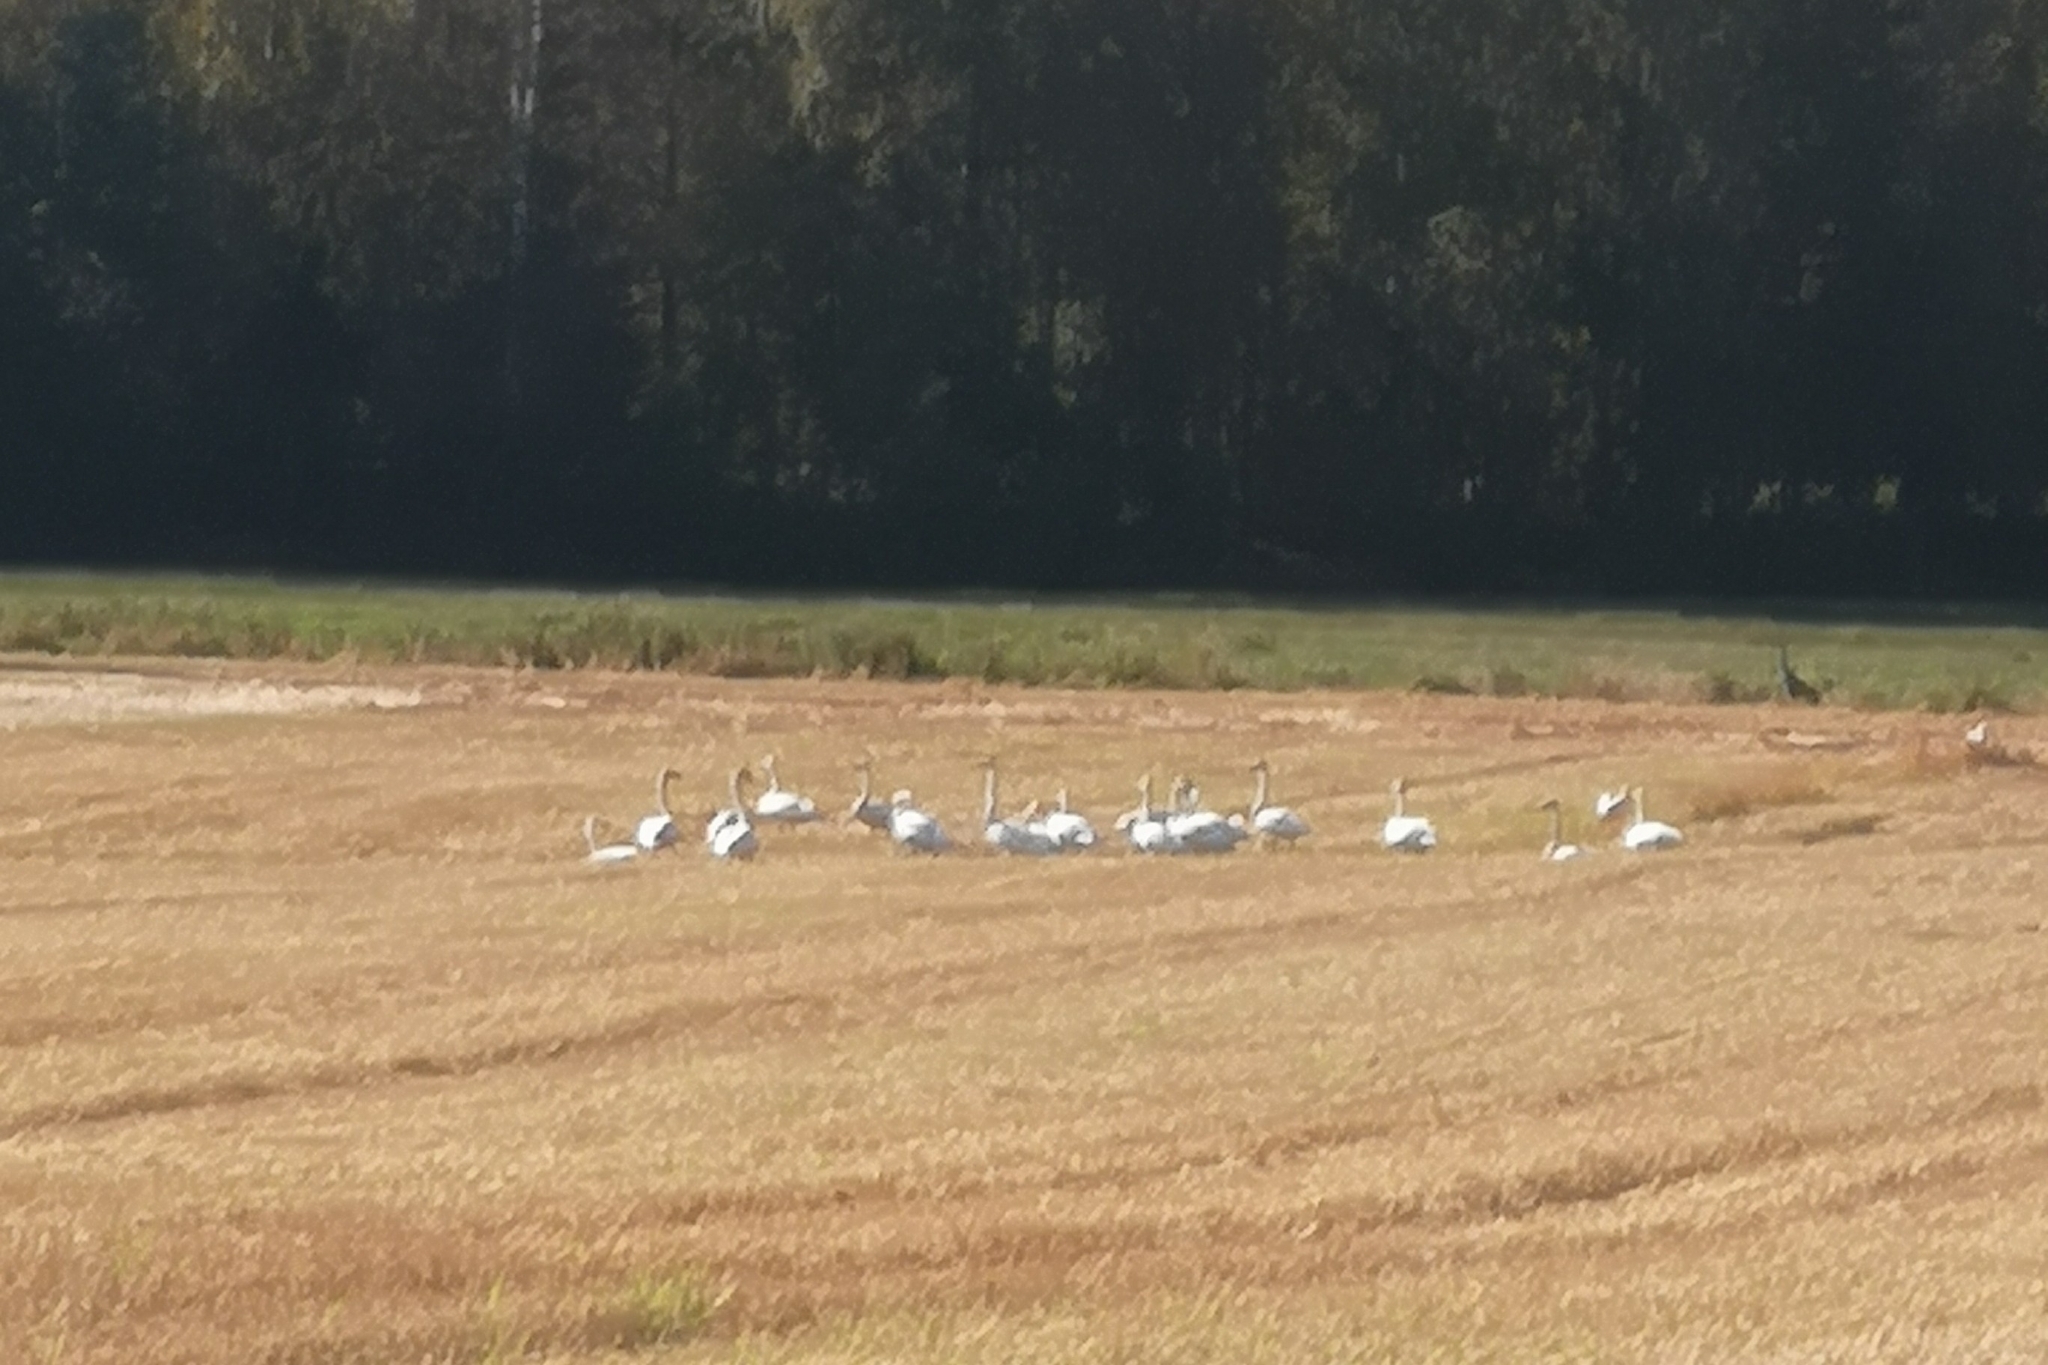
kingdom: Animalia
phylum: Chordata
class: Aves
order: Anseriformes
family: Anatidae
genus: Cygnus
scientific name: Cygnus cygnus
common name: Whooper swan
